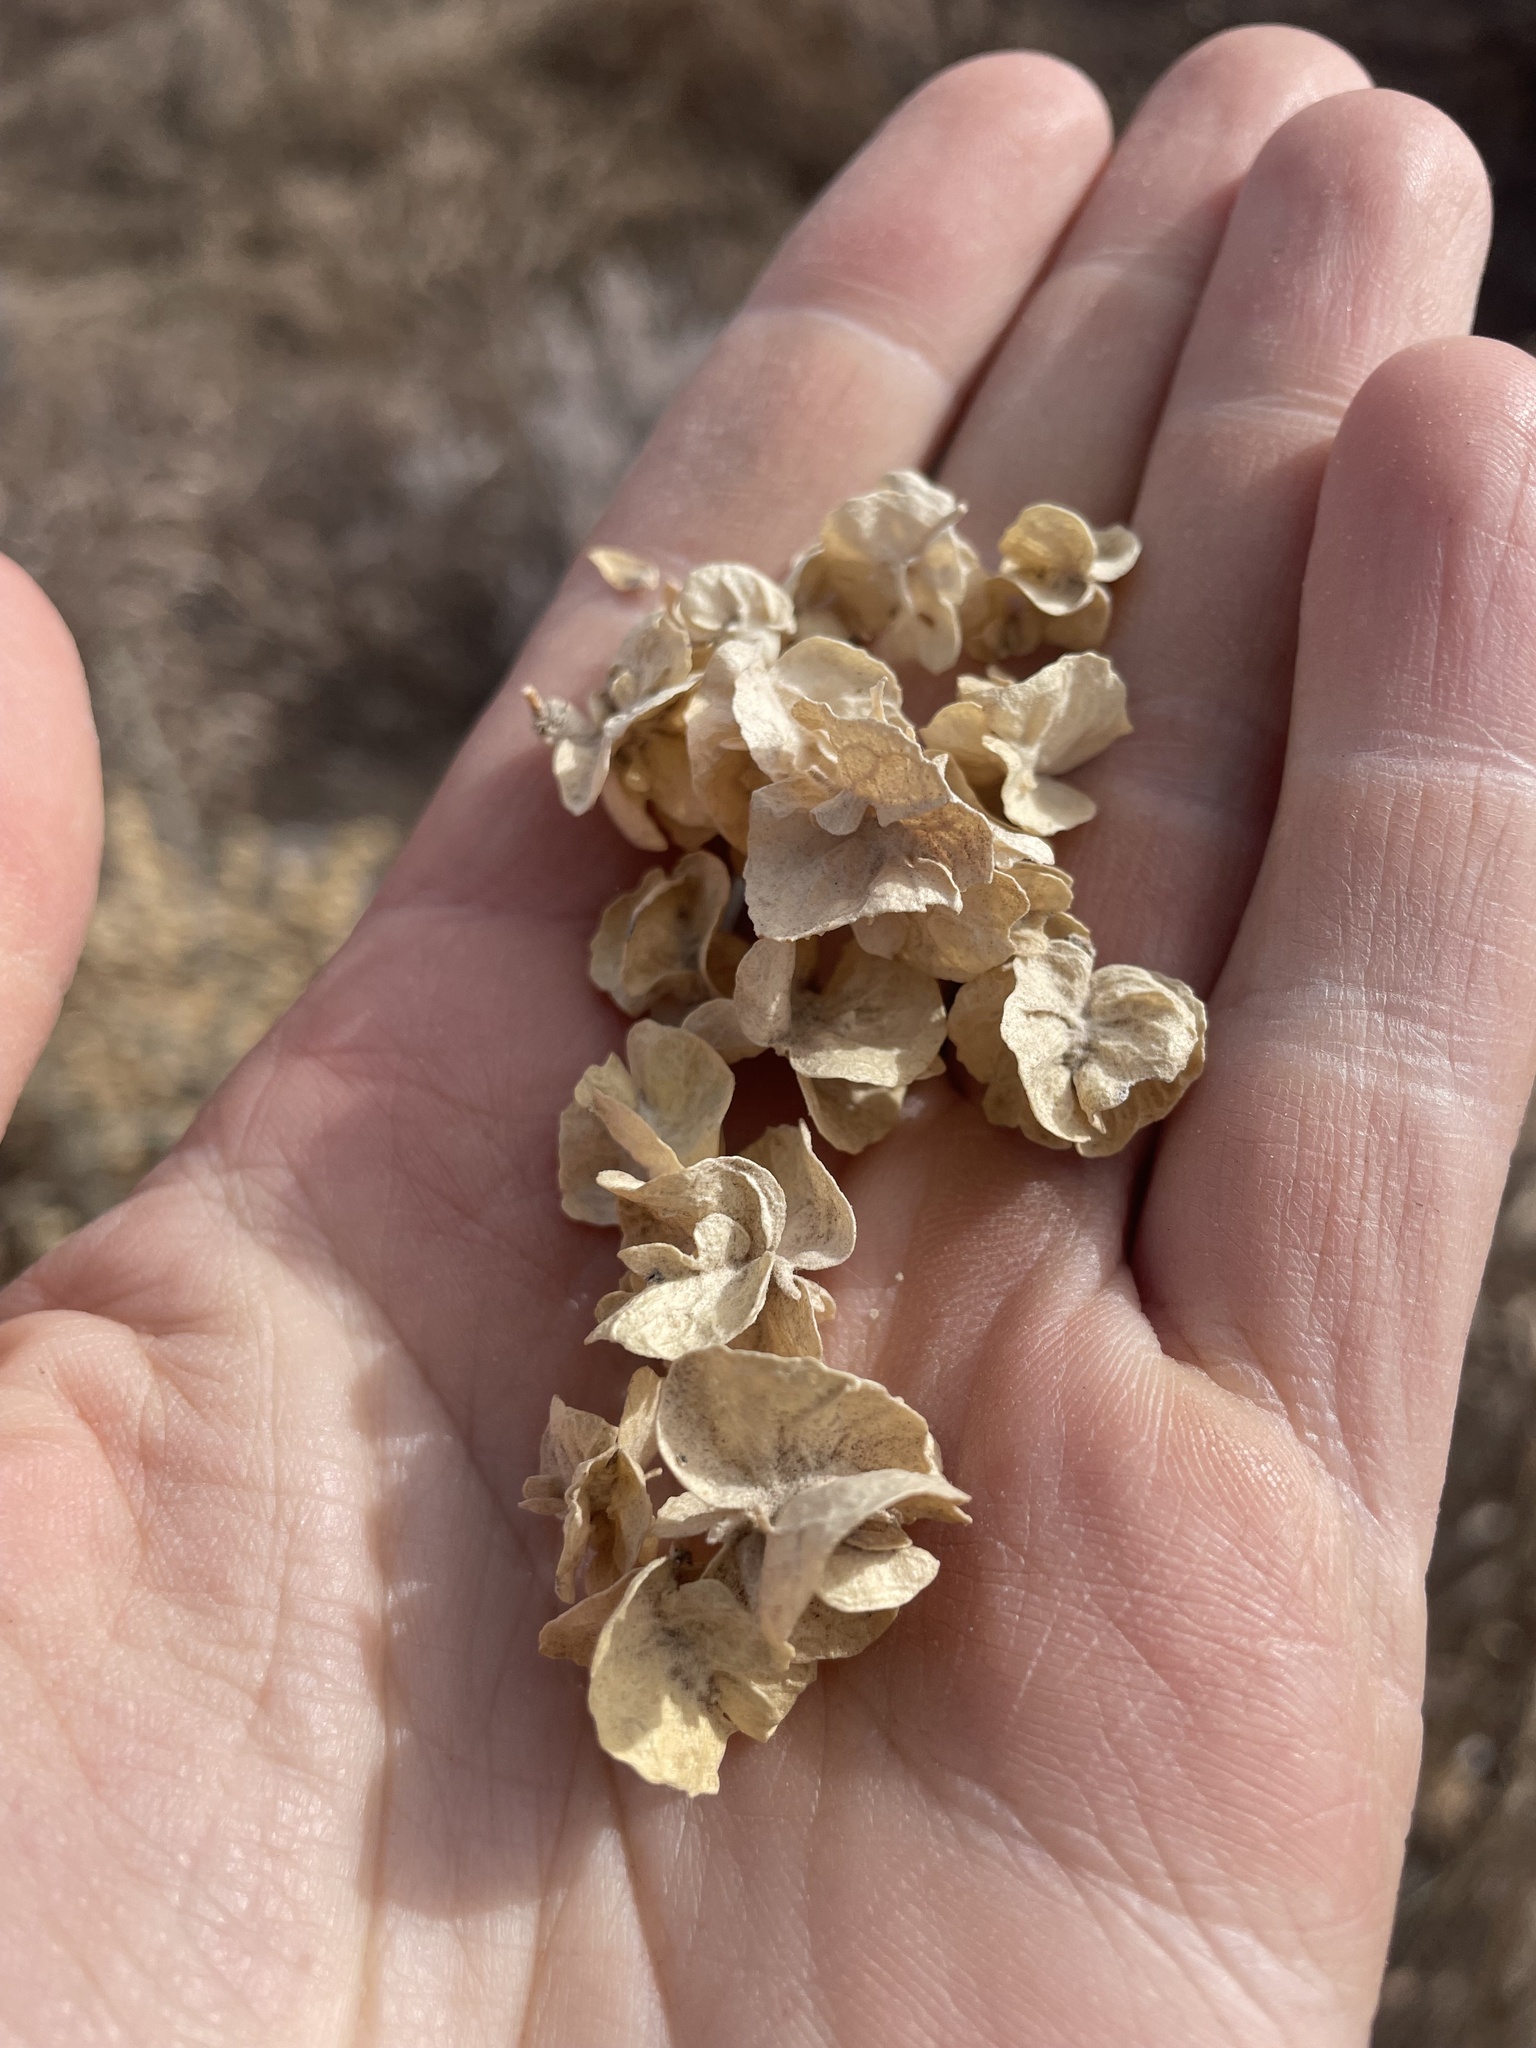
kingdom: Plantae
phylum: Tracheophyta
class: Magnoliopsida
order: Caryophyllales
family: Amaranthaceae
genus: Atriplex
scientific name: Atriplex canescens
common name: Four-wing saltbush
